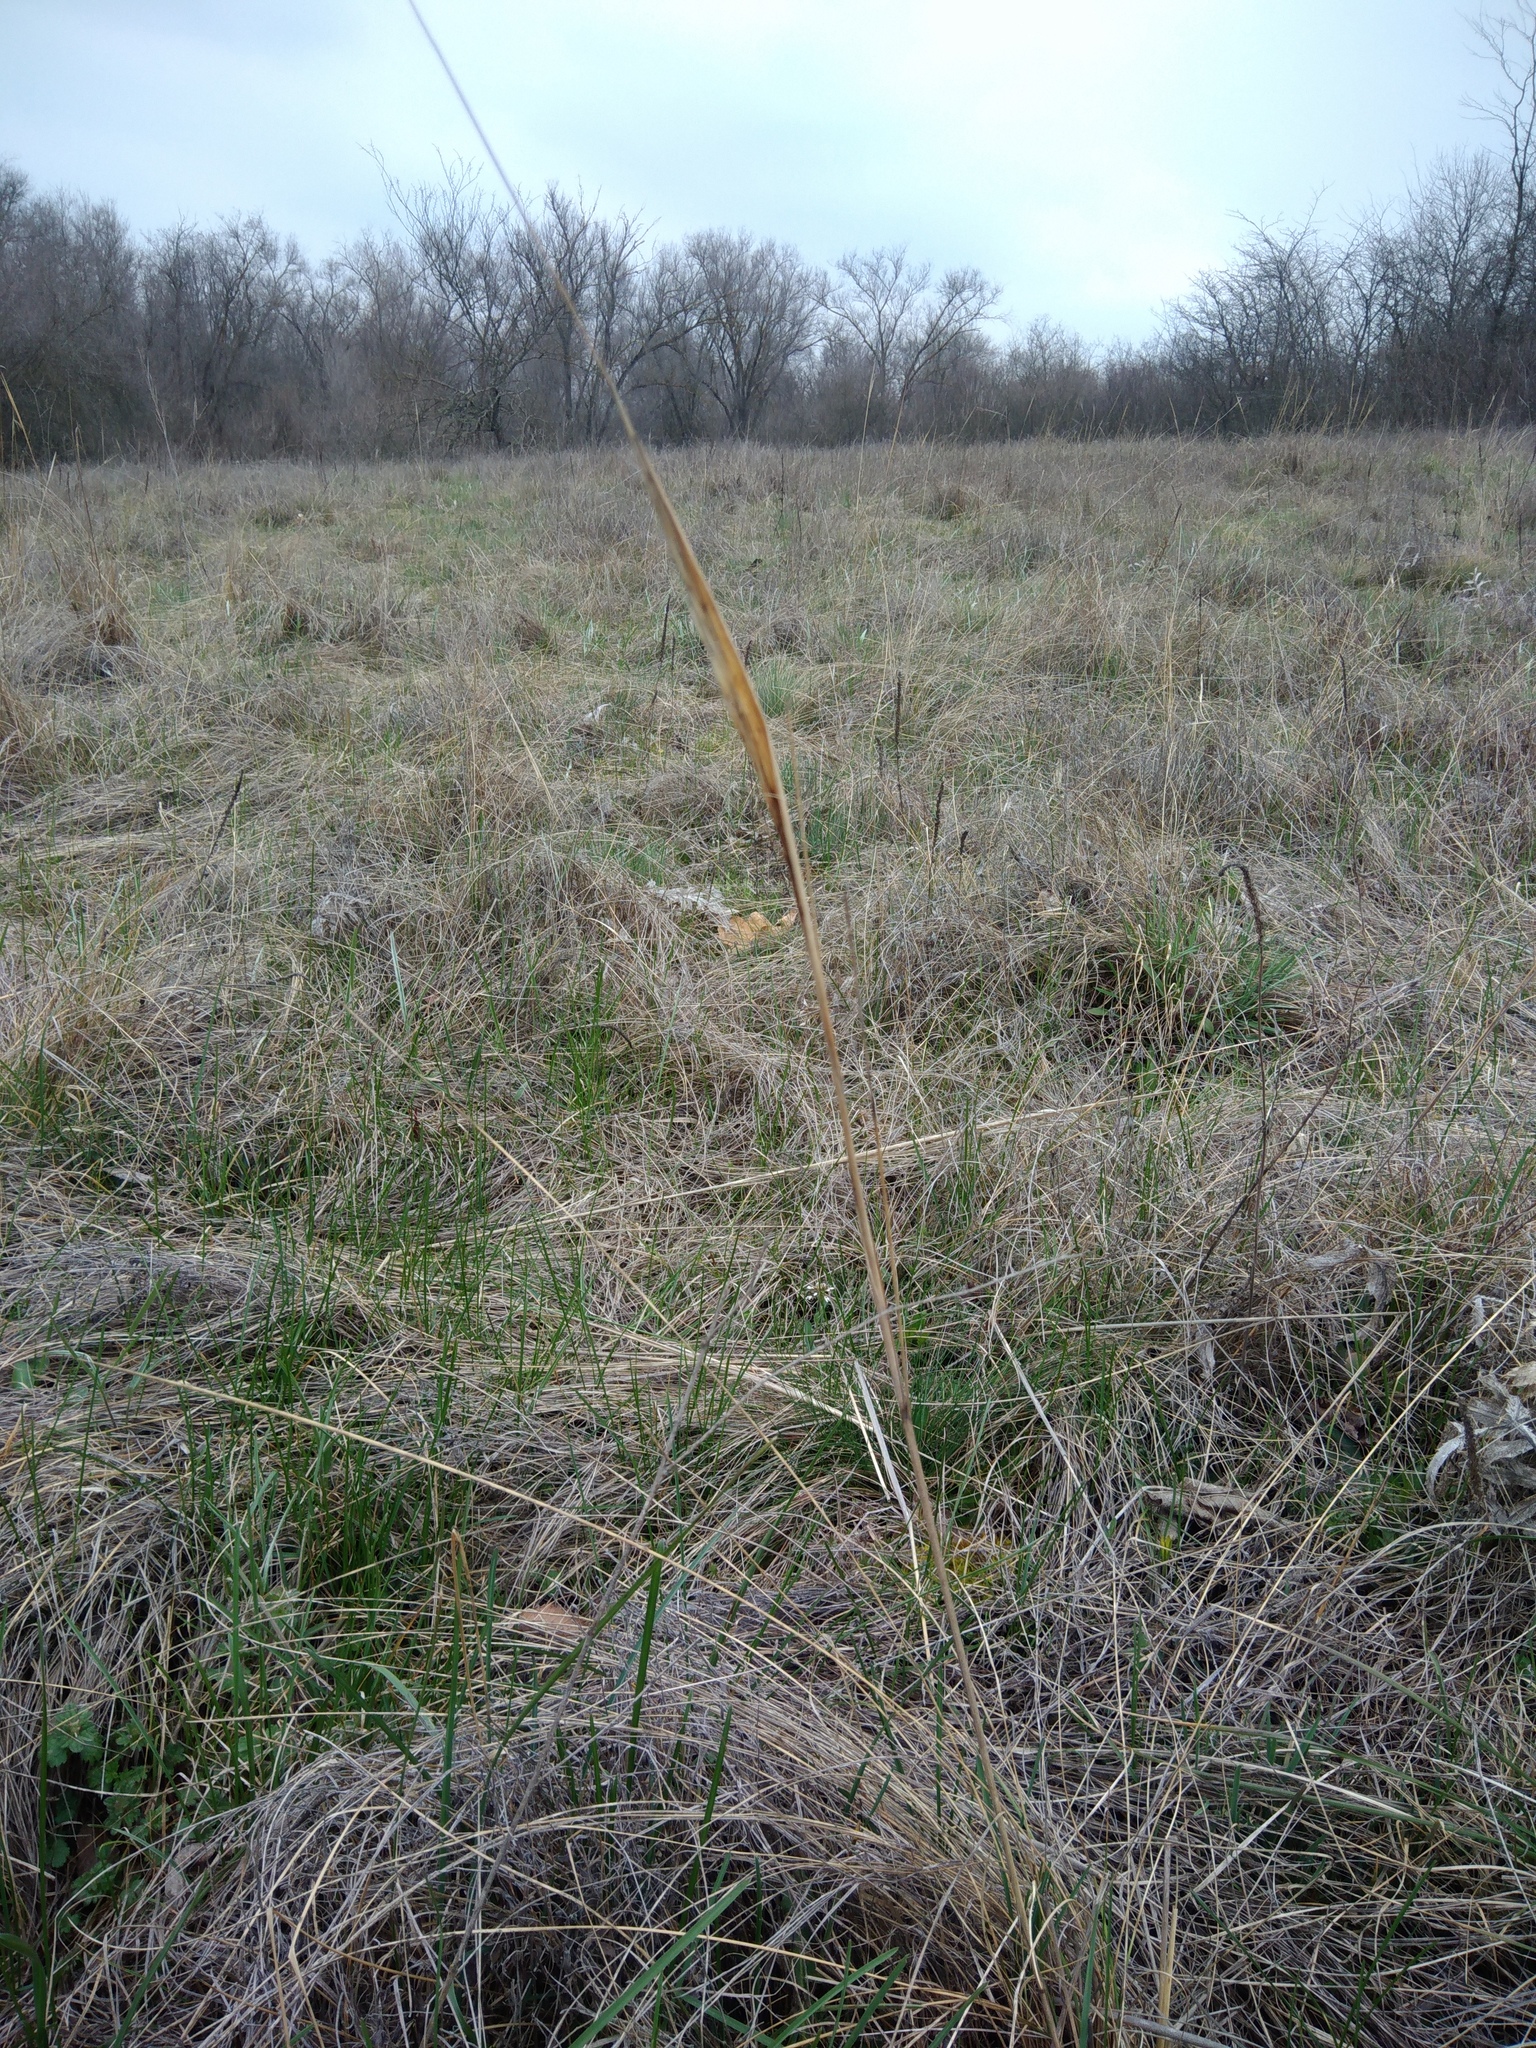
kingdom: Plantae
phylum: Tracheophyta
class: Liliopsida
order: Poales
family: Poaceae
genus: Stipa
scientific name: Stipa capillata
